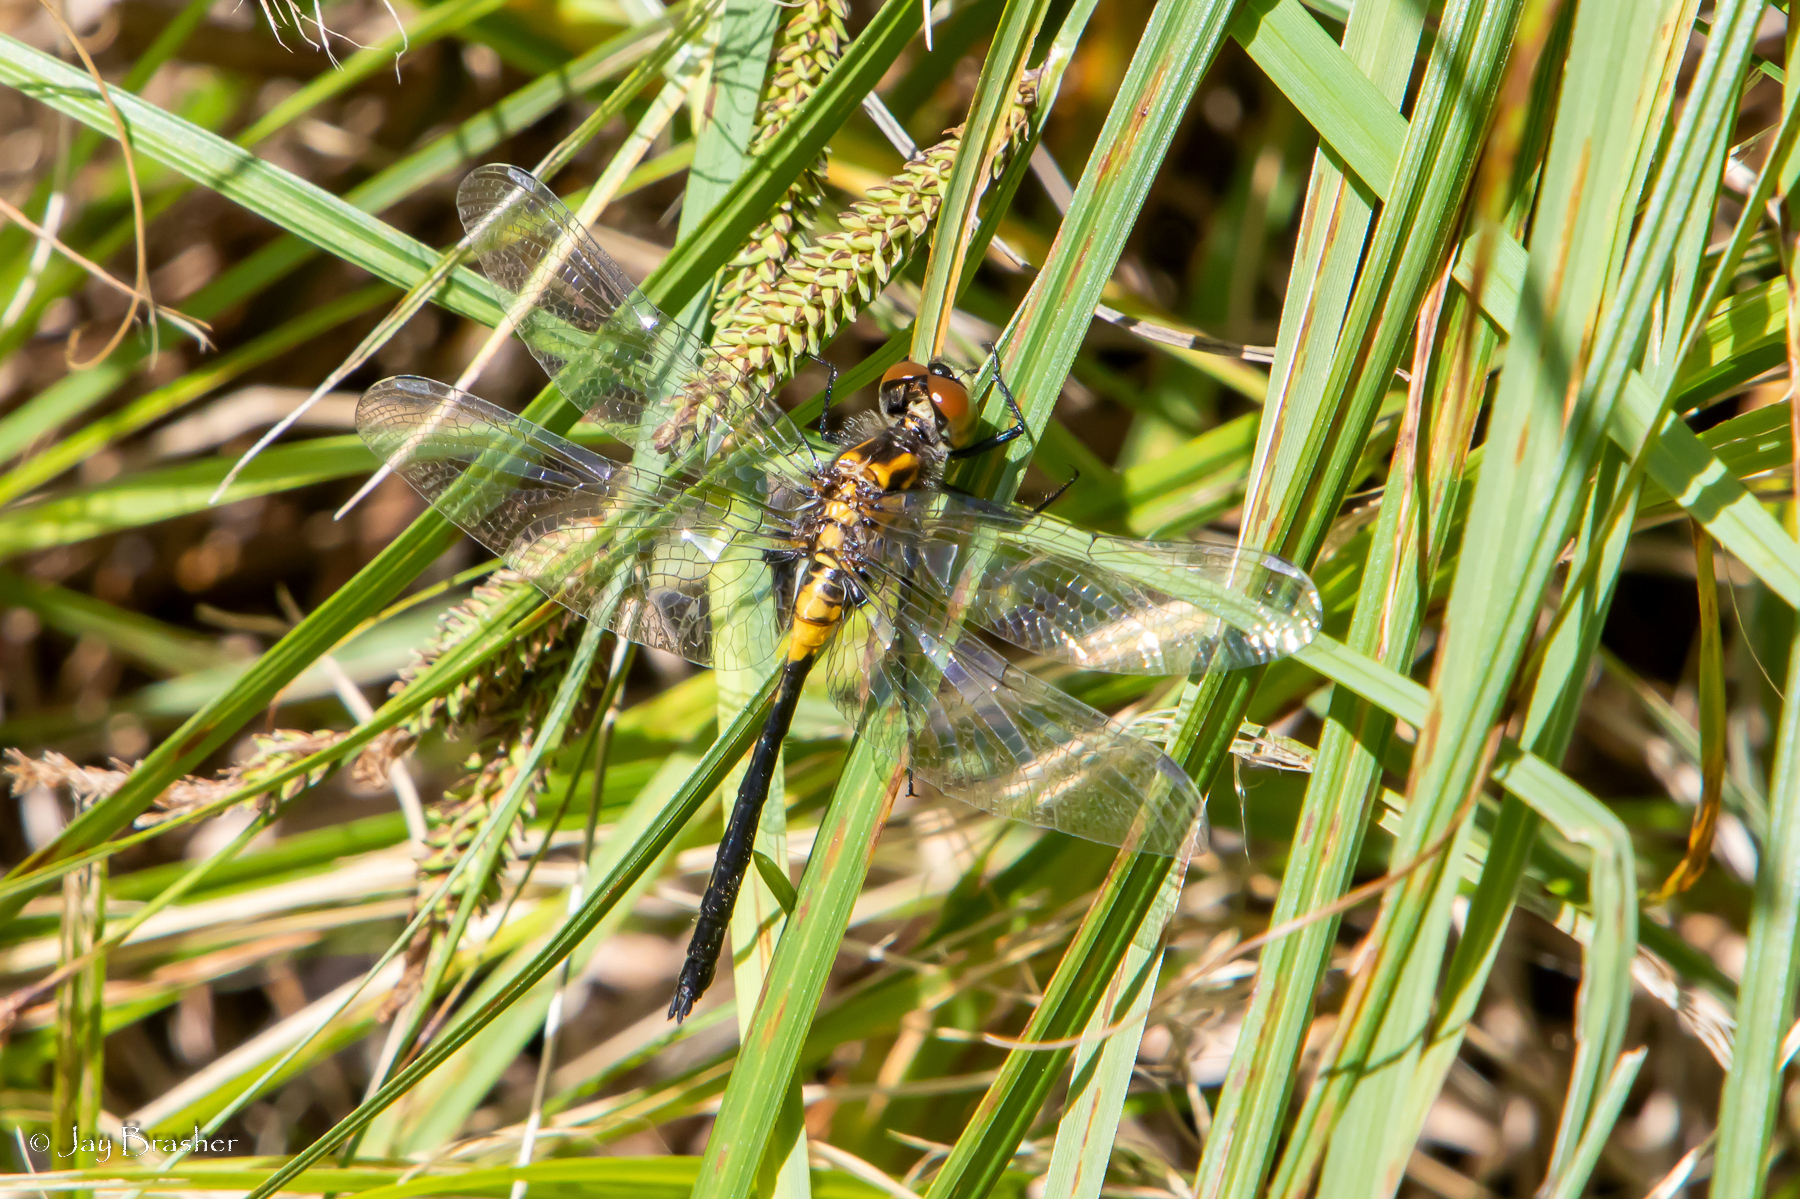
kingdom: Animalia
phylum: Arthropoda
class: Insecta
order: Odonata
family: Libellulidae
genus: Leucorrhinia
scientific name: Leucorrhinia proxima
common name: Belted whiteface
